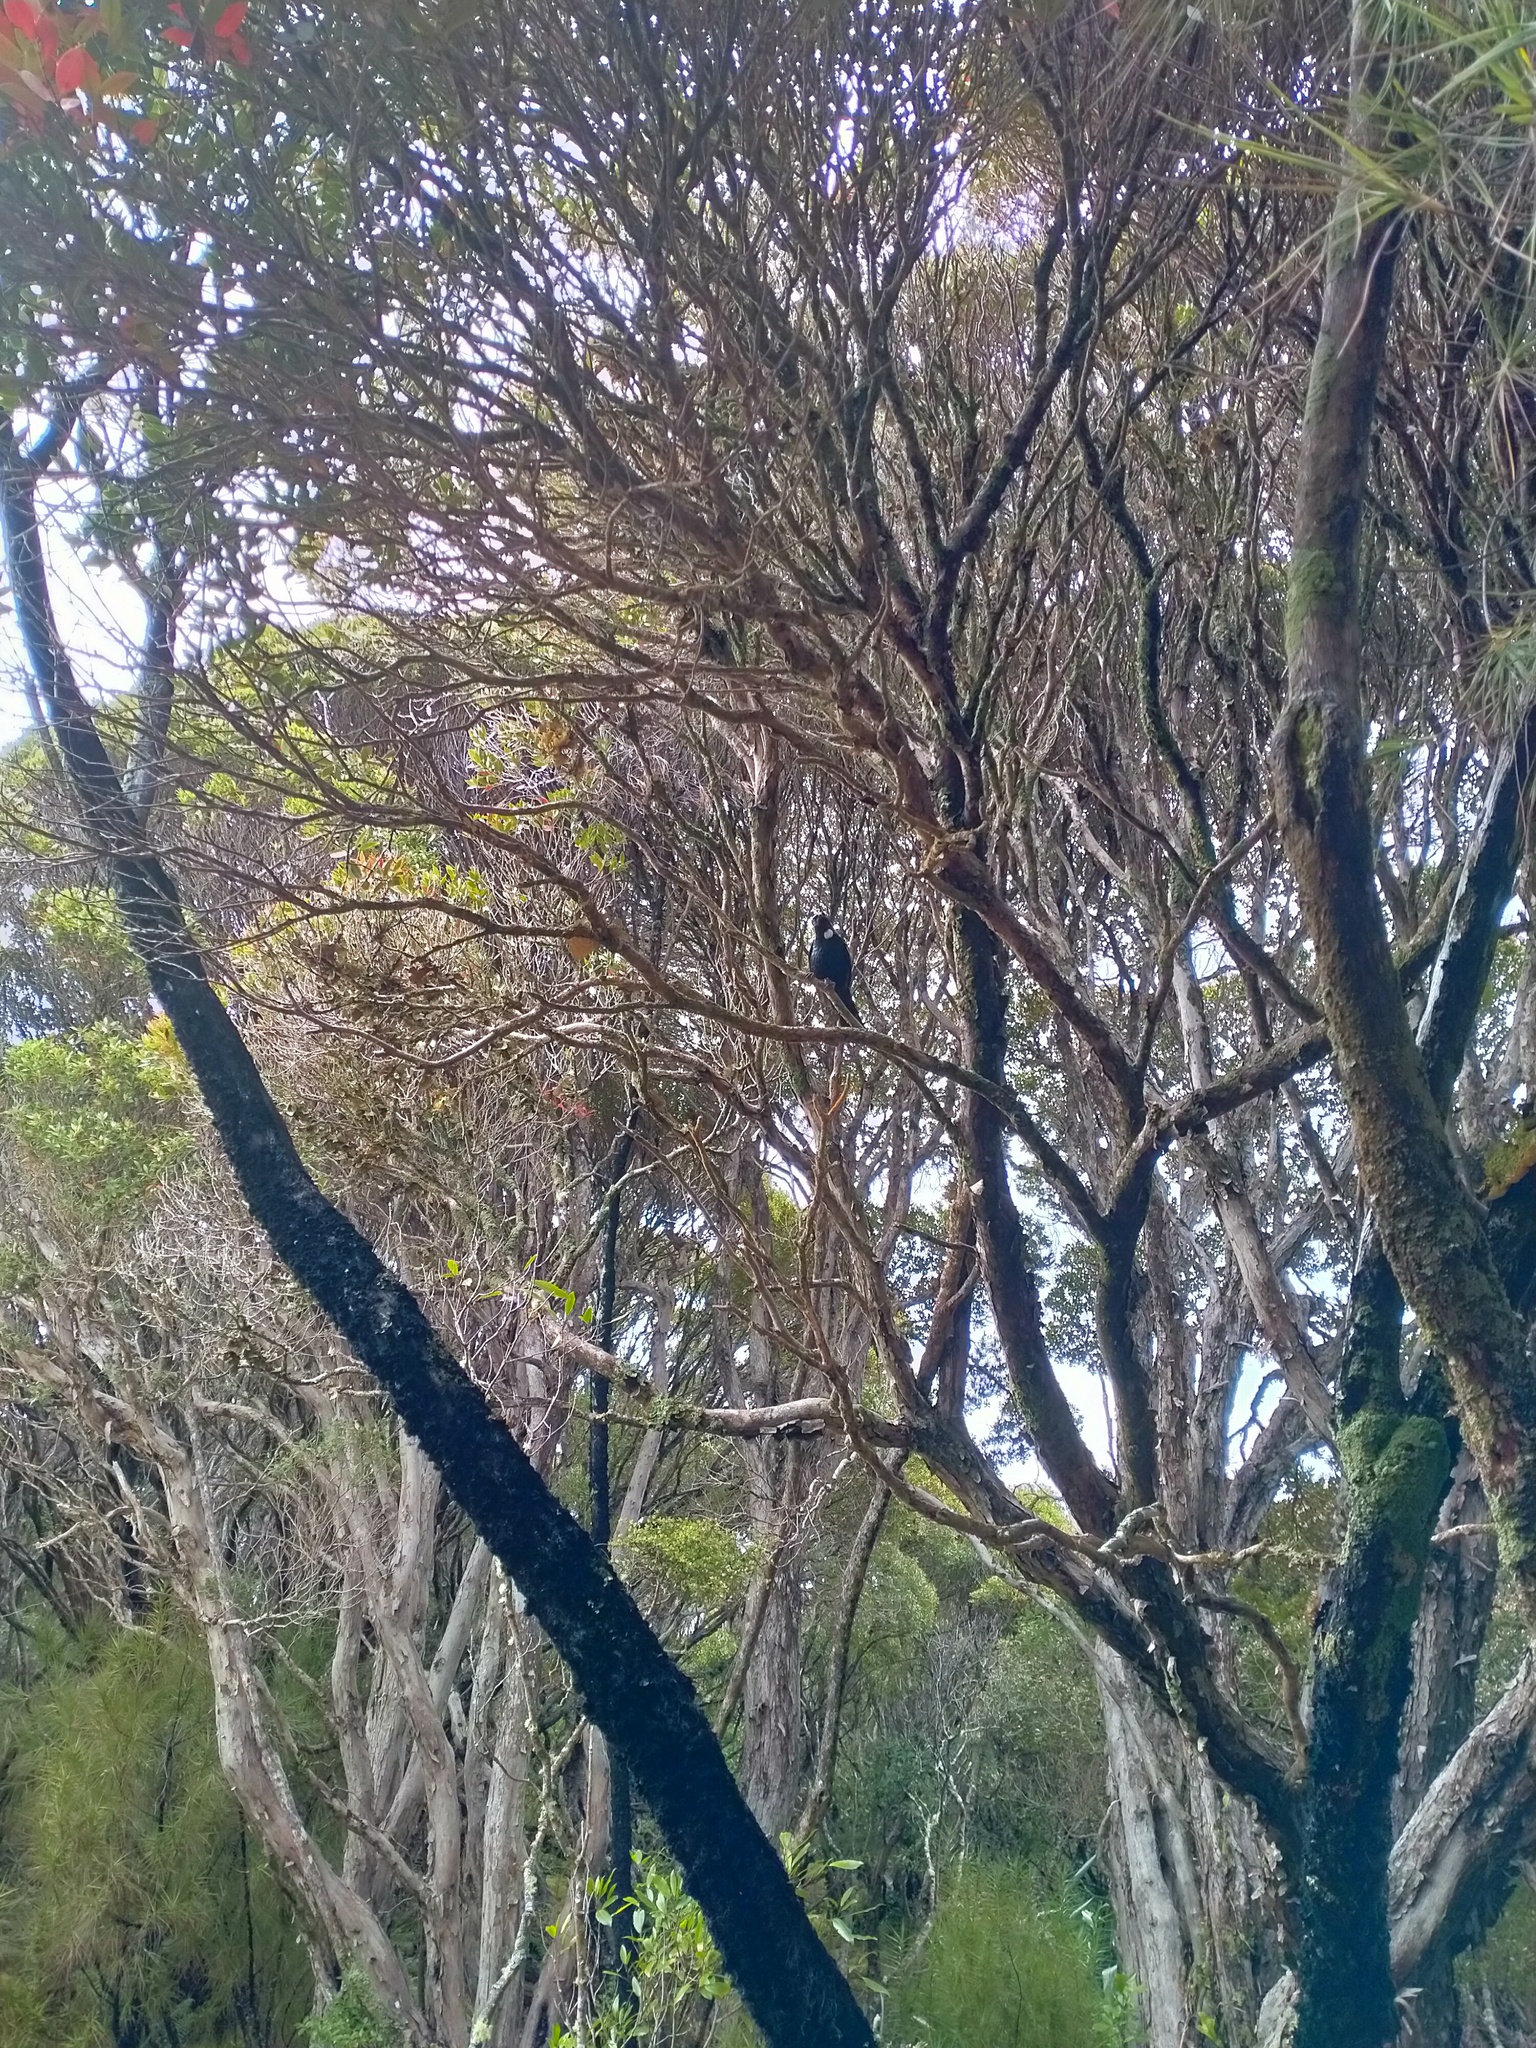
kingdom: Animalia
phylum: Chordata
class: Aves
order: Passeriformes
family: Meliphagidae
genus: Prosthemadera
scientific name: Prosthemadera novaeseelandiae
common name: Tui
